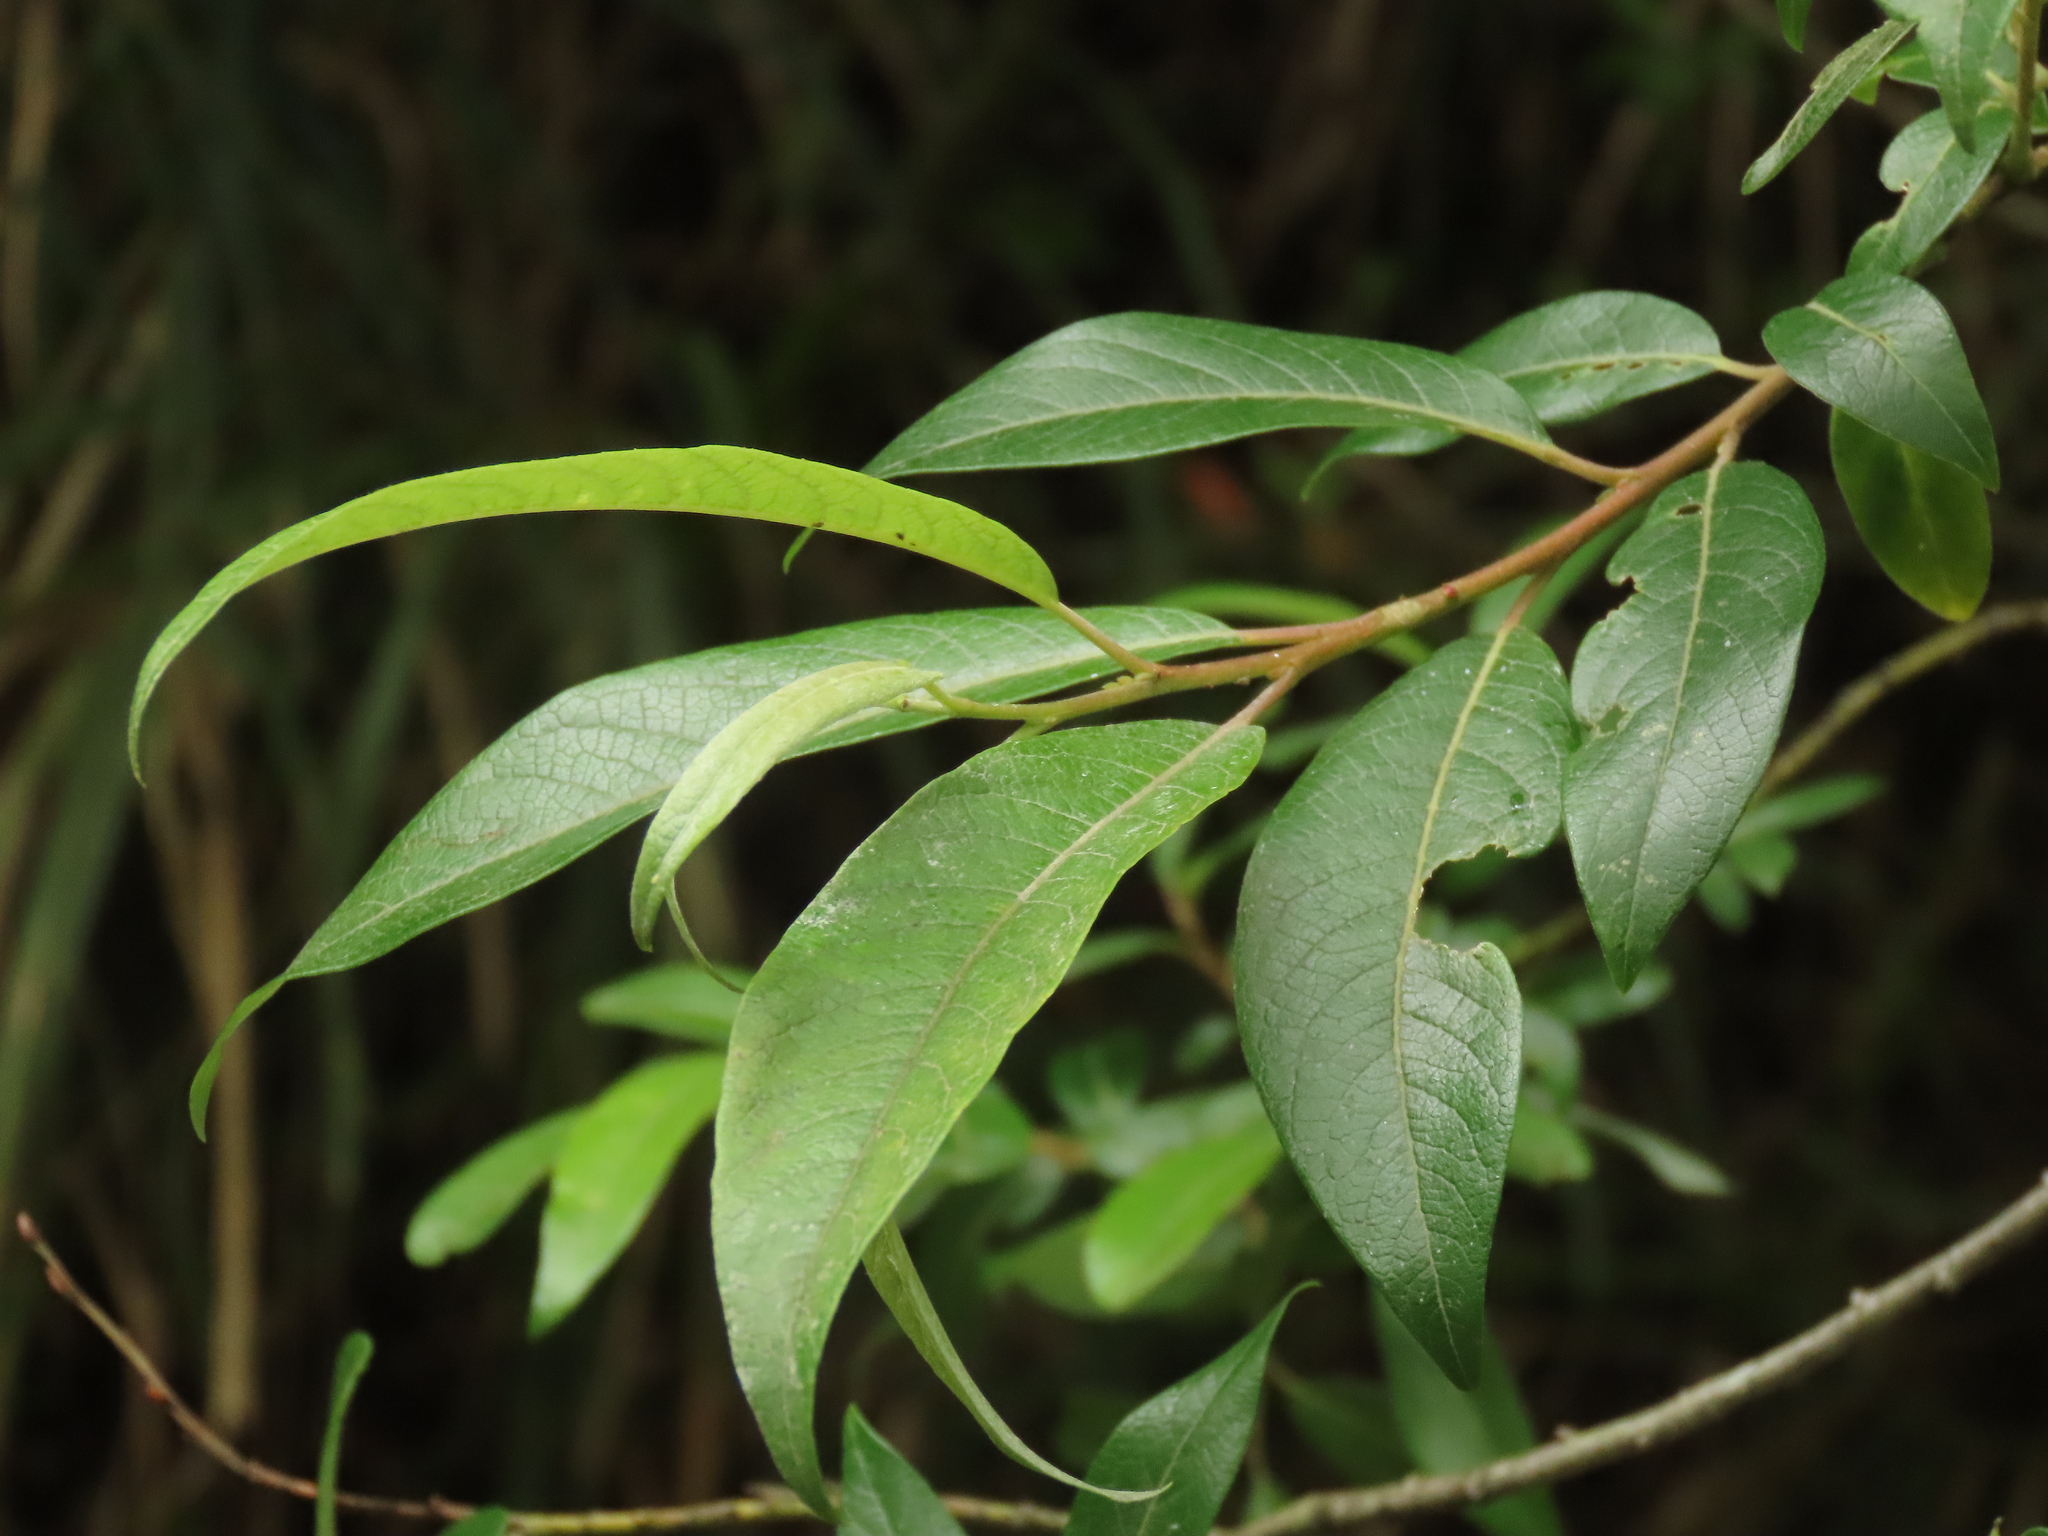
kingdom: Plantae
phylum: Tracheophyta
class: Magnoliopsida
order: Malpighiales
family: Salicaceae
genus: Salix
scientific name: Salix fulvopubescens
